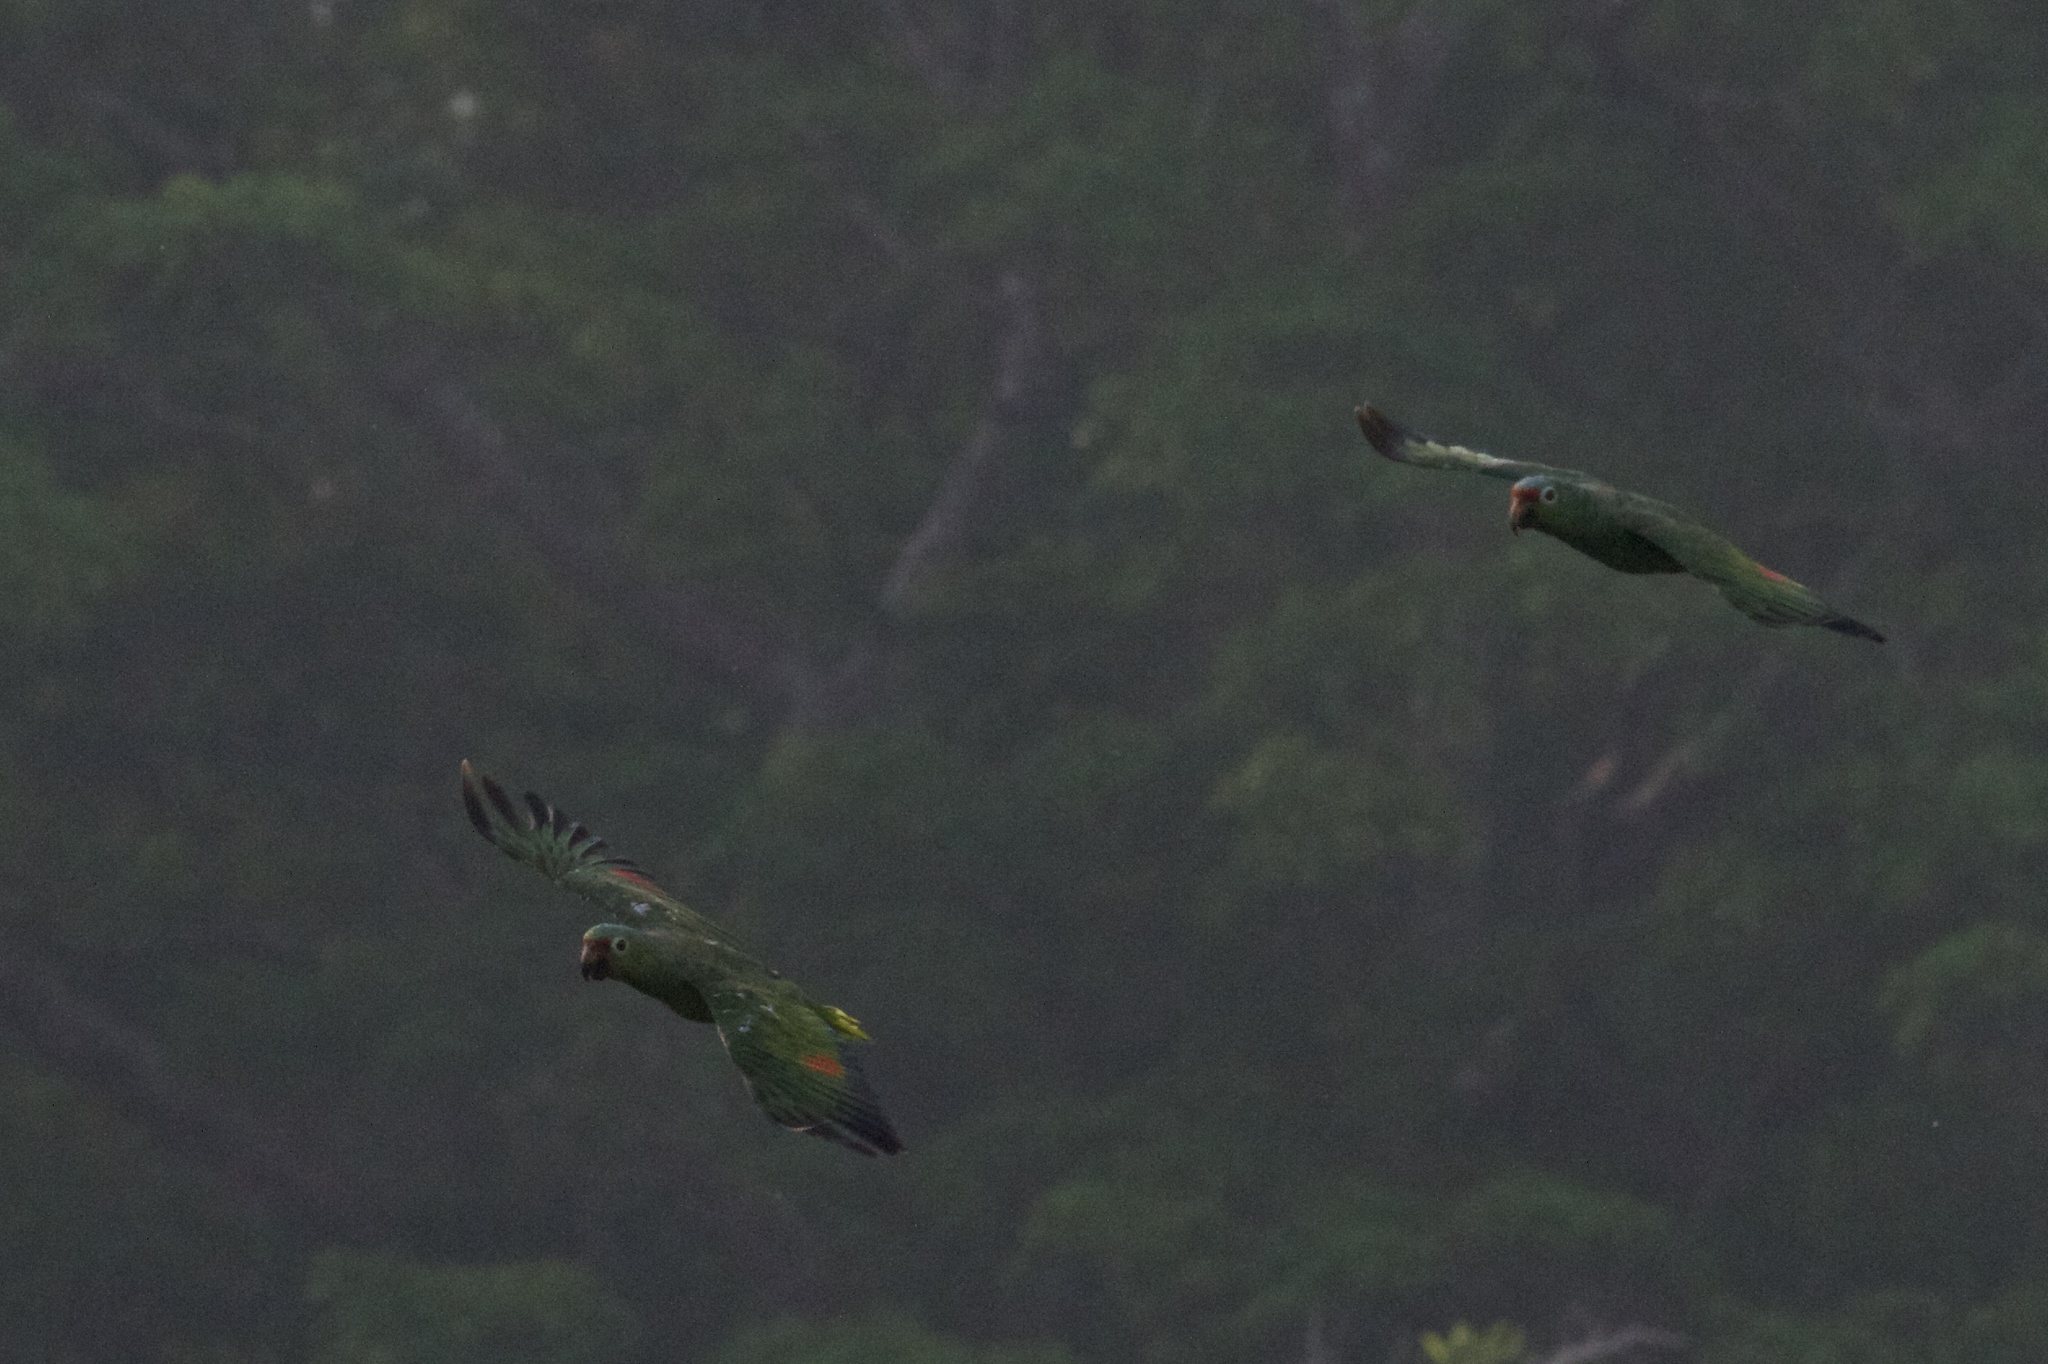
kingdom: Animalia
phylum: Chordata
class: Aves
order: Psittaciformes
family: Psittacidae
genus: Amazona
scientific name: Amazona autumnalis
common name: Red-lored amazon
